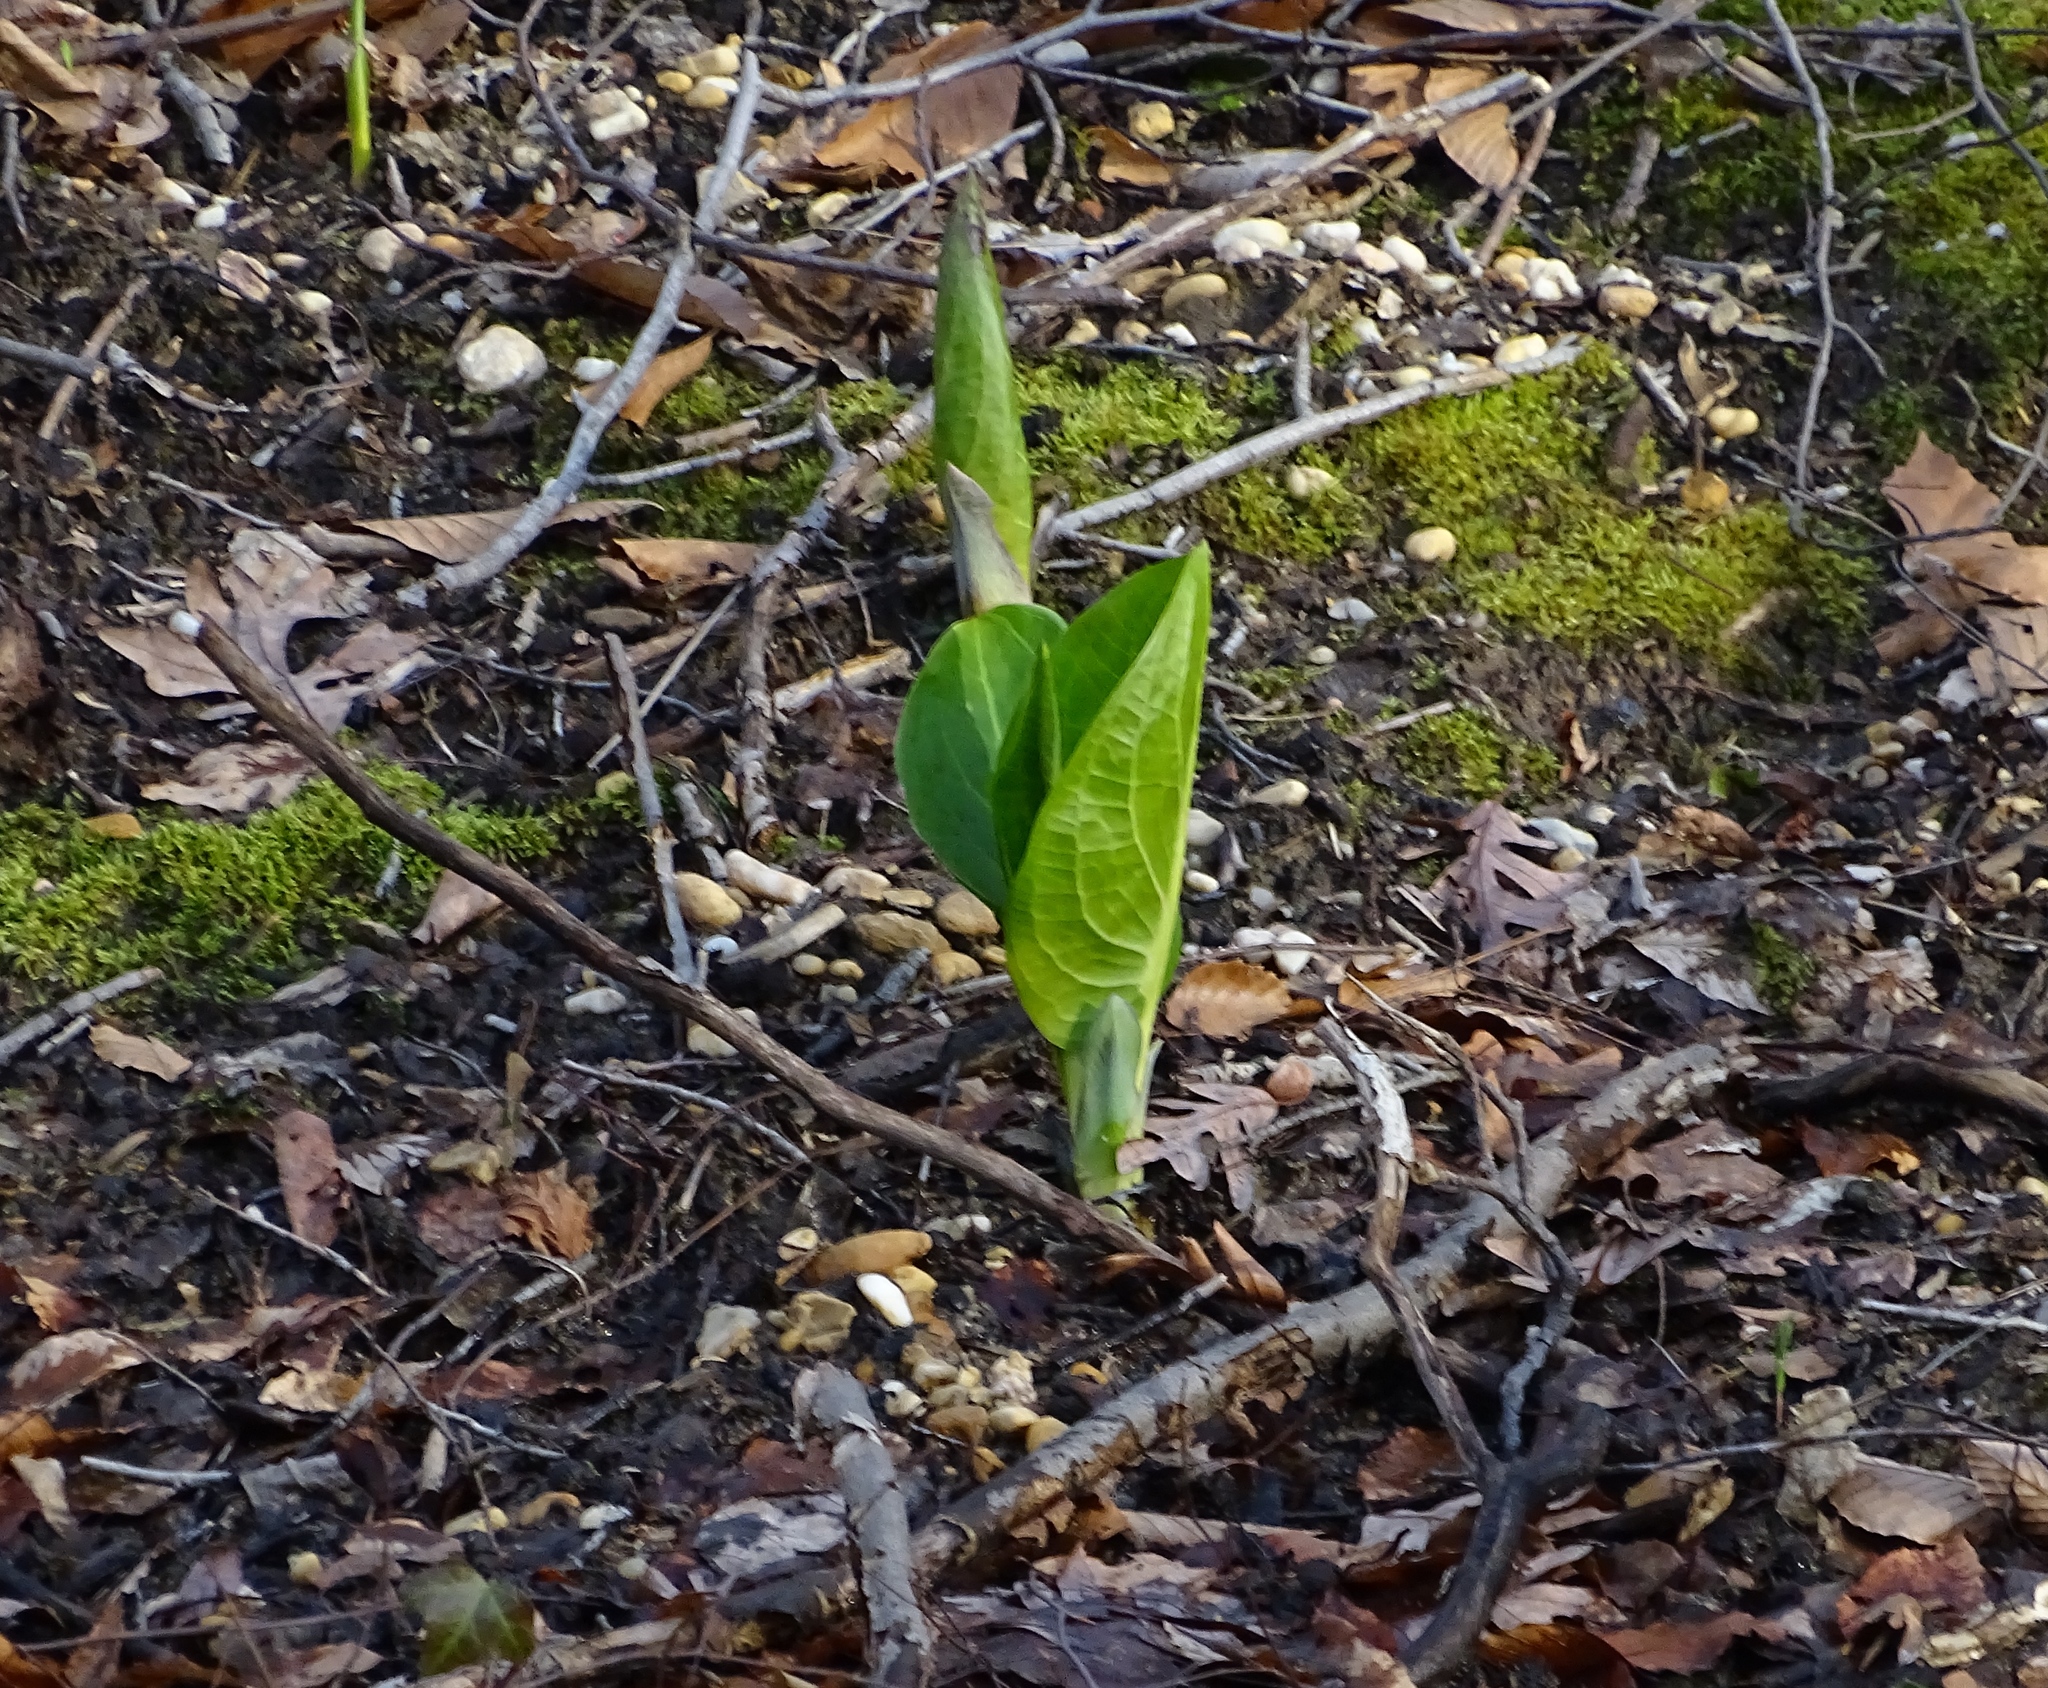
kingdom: Plantae
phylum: Tracheophyta
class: Liliopsida
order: Alismatales
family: Araceae
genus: Symplocarpus
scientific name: Symplocarpus foetidus
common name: Eastern skunk cabbage
